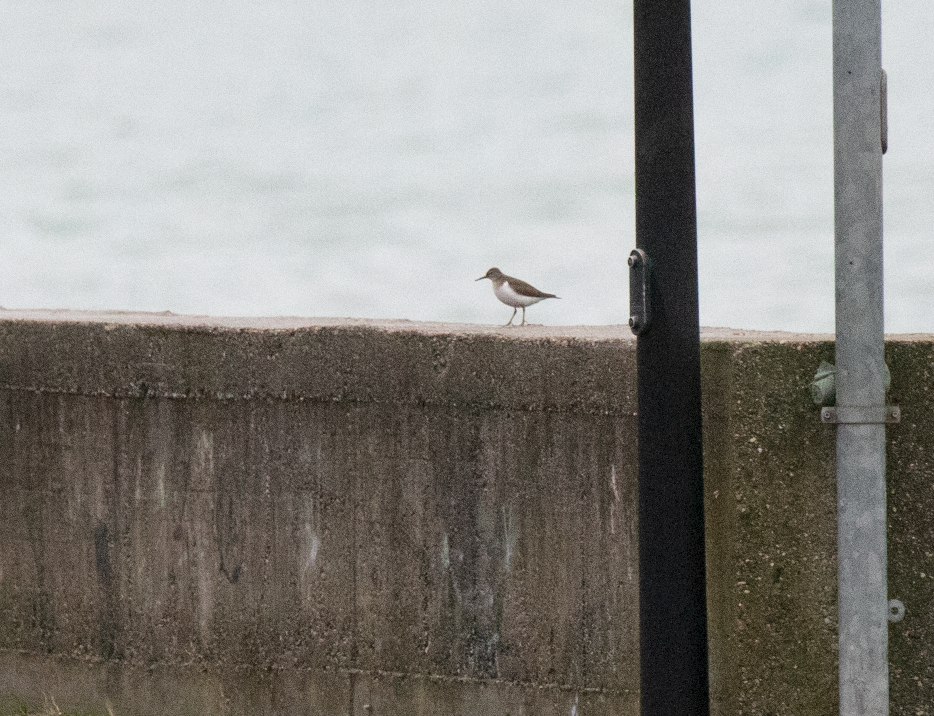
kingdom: Animalia
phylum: Chordata
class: Aves
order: Charadriiformes
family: Scolopacidae
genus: Actitis
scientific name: Actitis hypoleucos
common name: Common sandpiper
